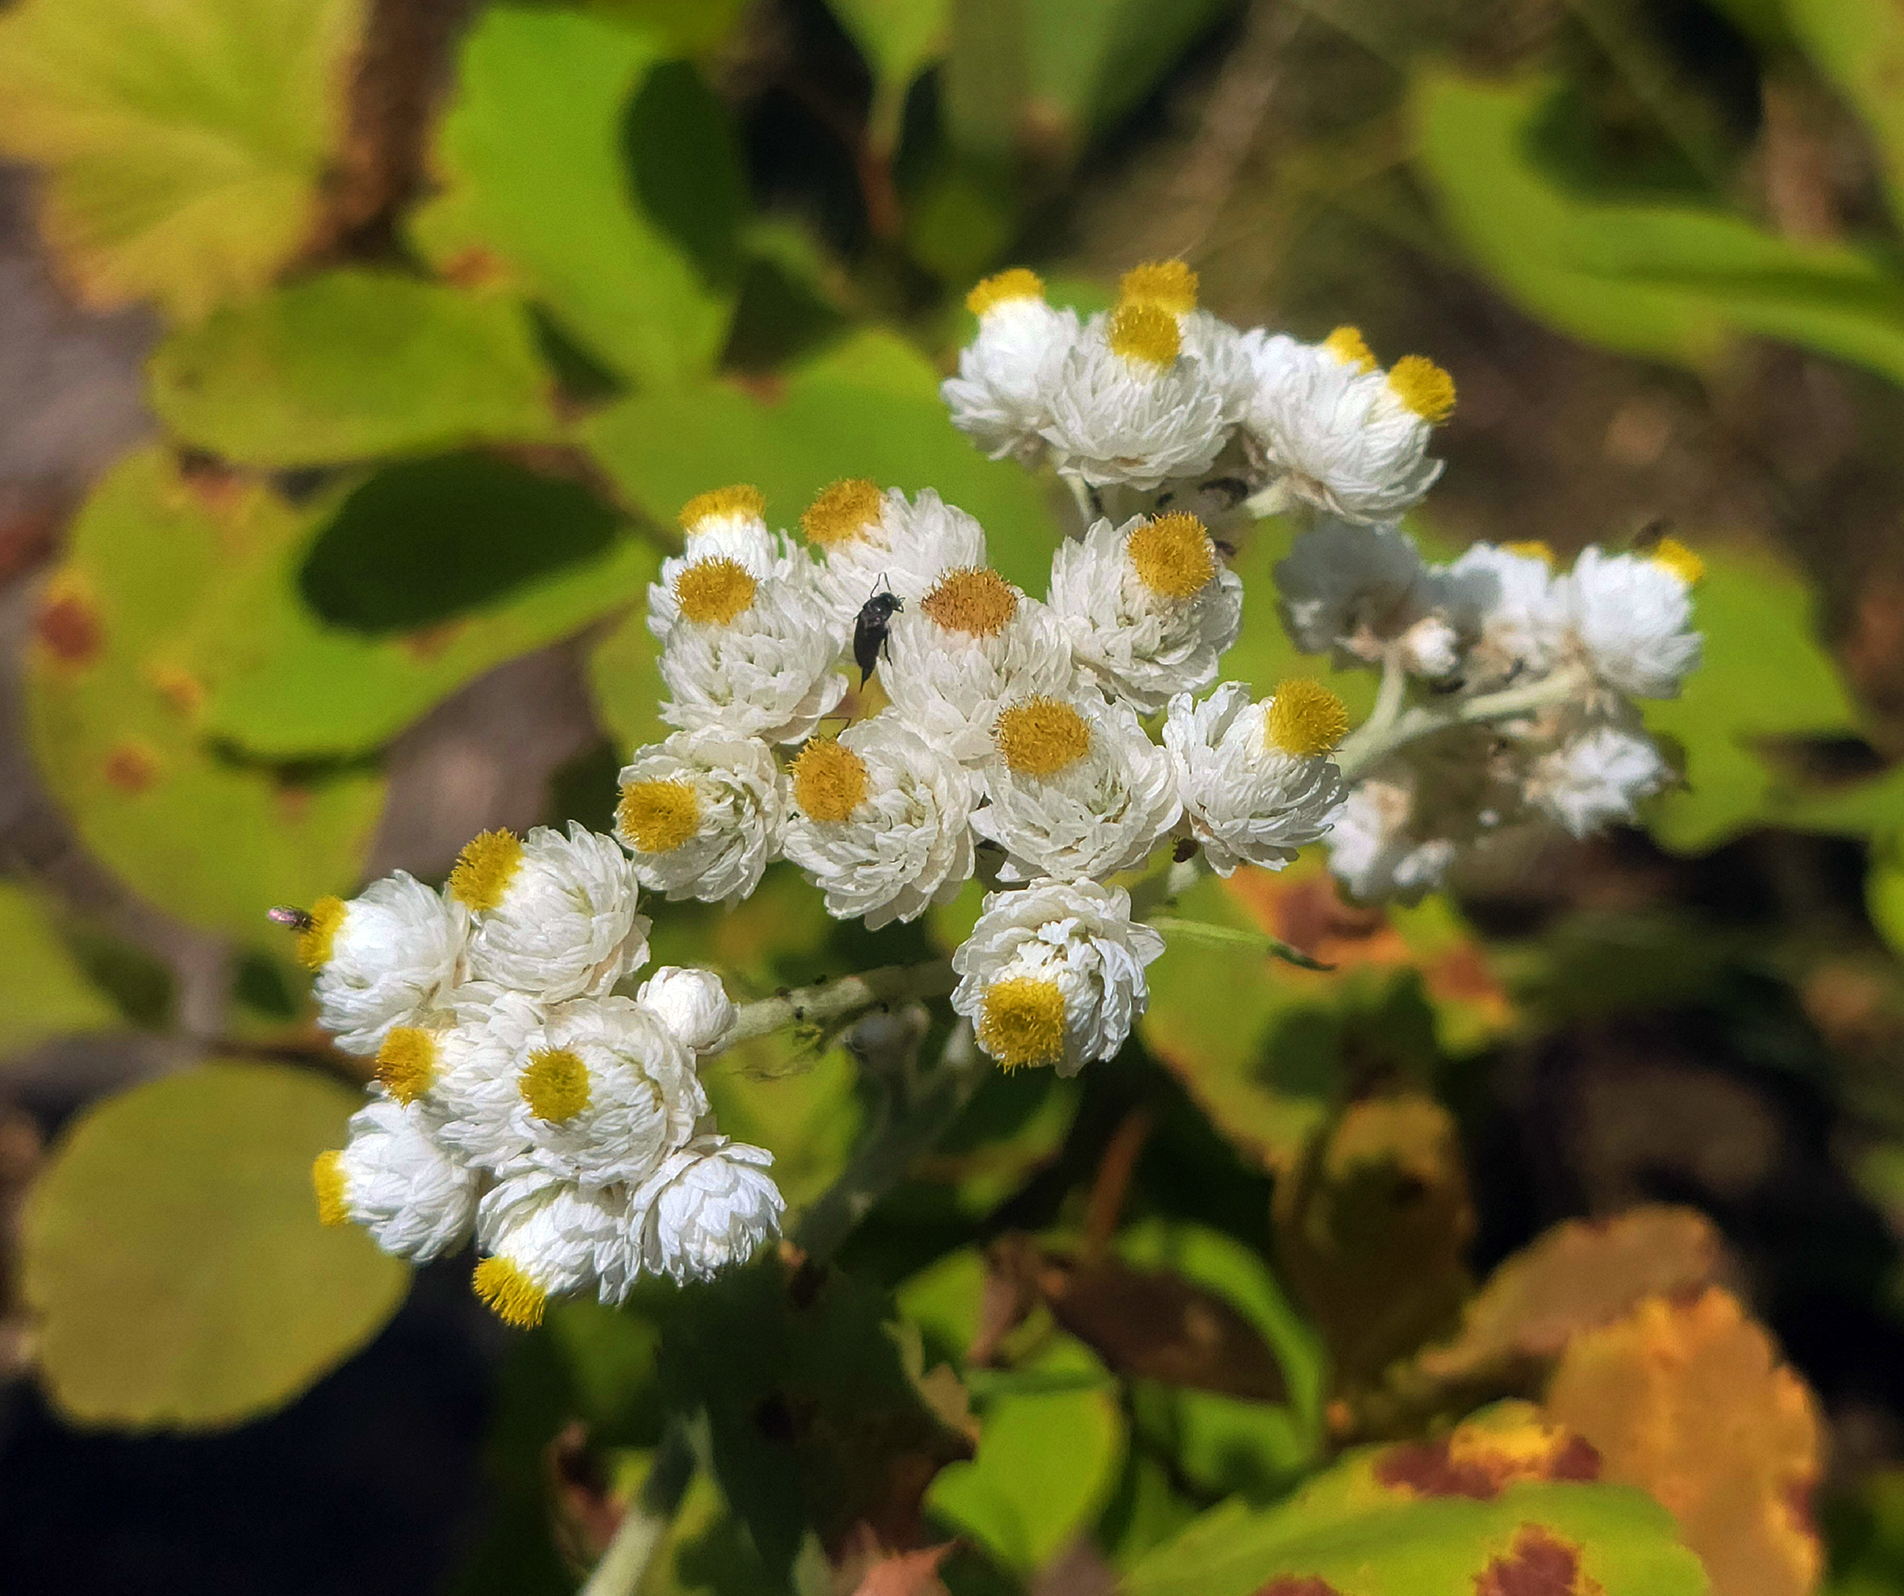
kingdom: Plantae
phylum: Tracheophyta
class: Magnoliopsida
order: Asterales
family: Asteraceae
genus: Anaphalis
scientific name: Anaphalis margaritacea
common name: Pearly everlasting
